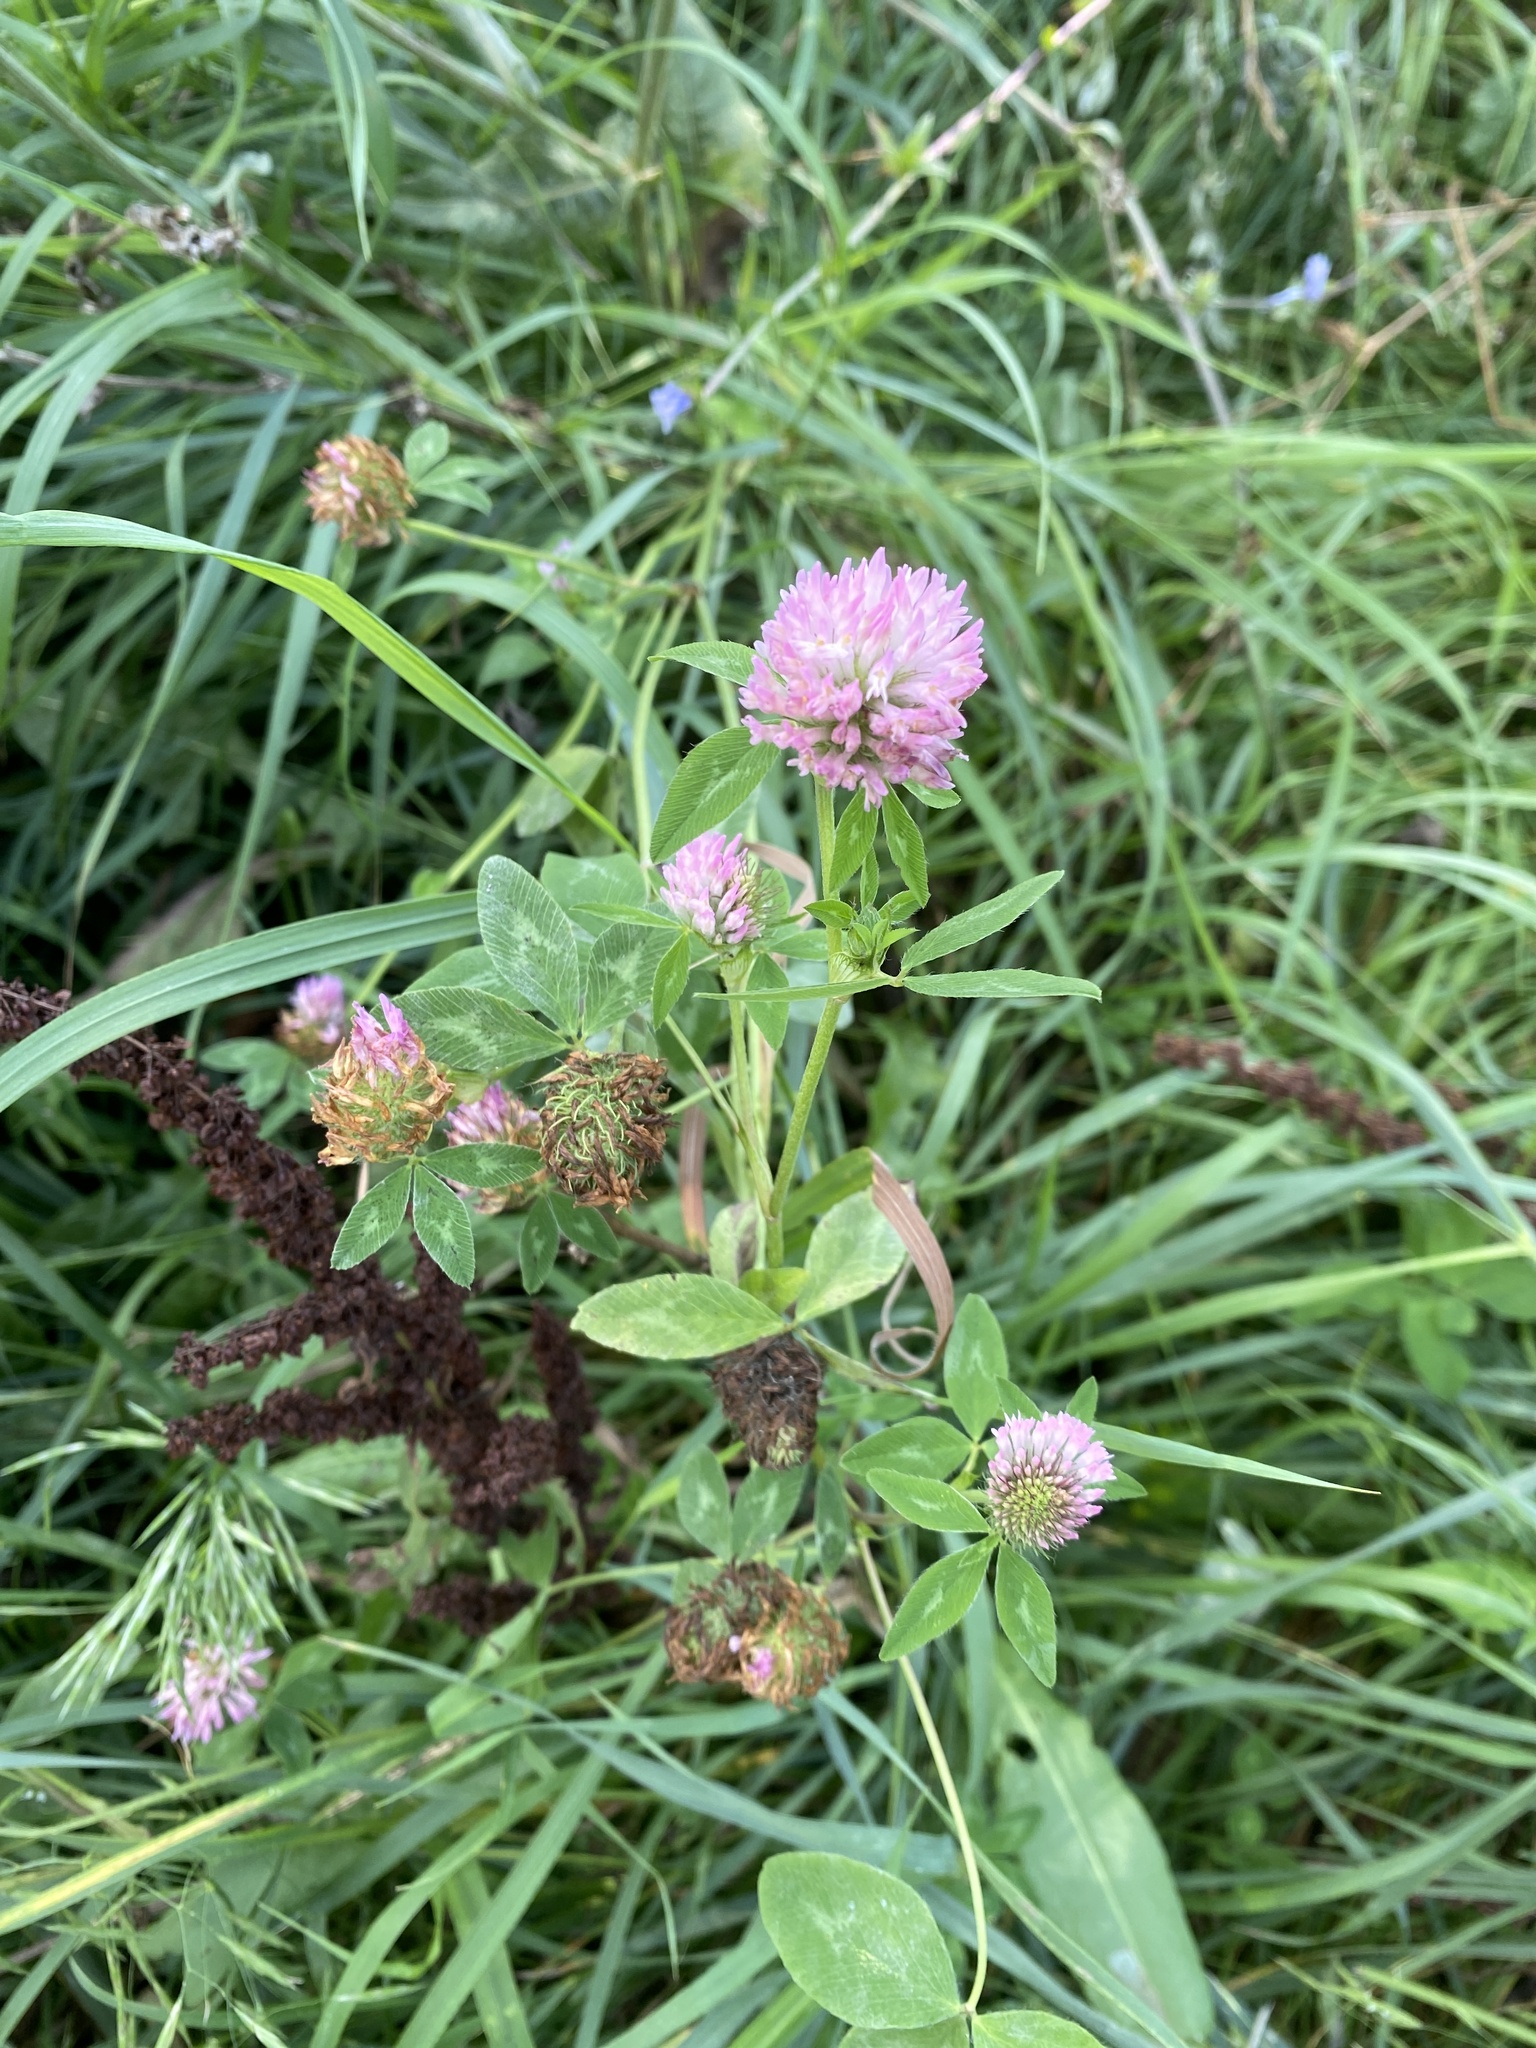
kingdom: Plantae
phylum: Tracheophyta
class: Magnoliopsida
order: Fabales
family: Fabaceae
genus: Trifolium
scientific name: Trifolium pratense
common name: Red clover
